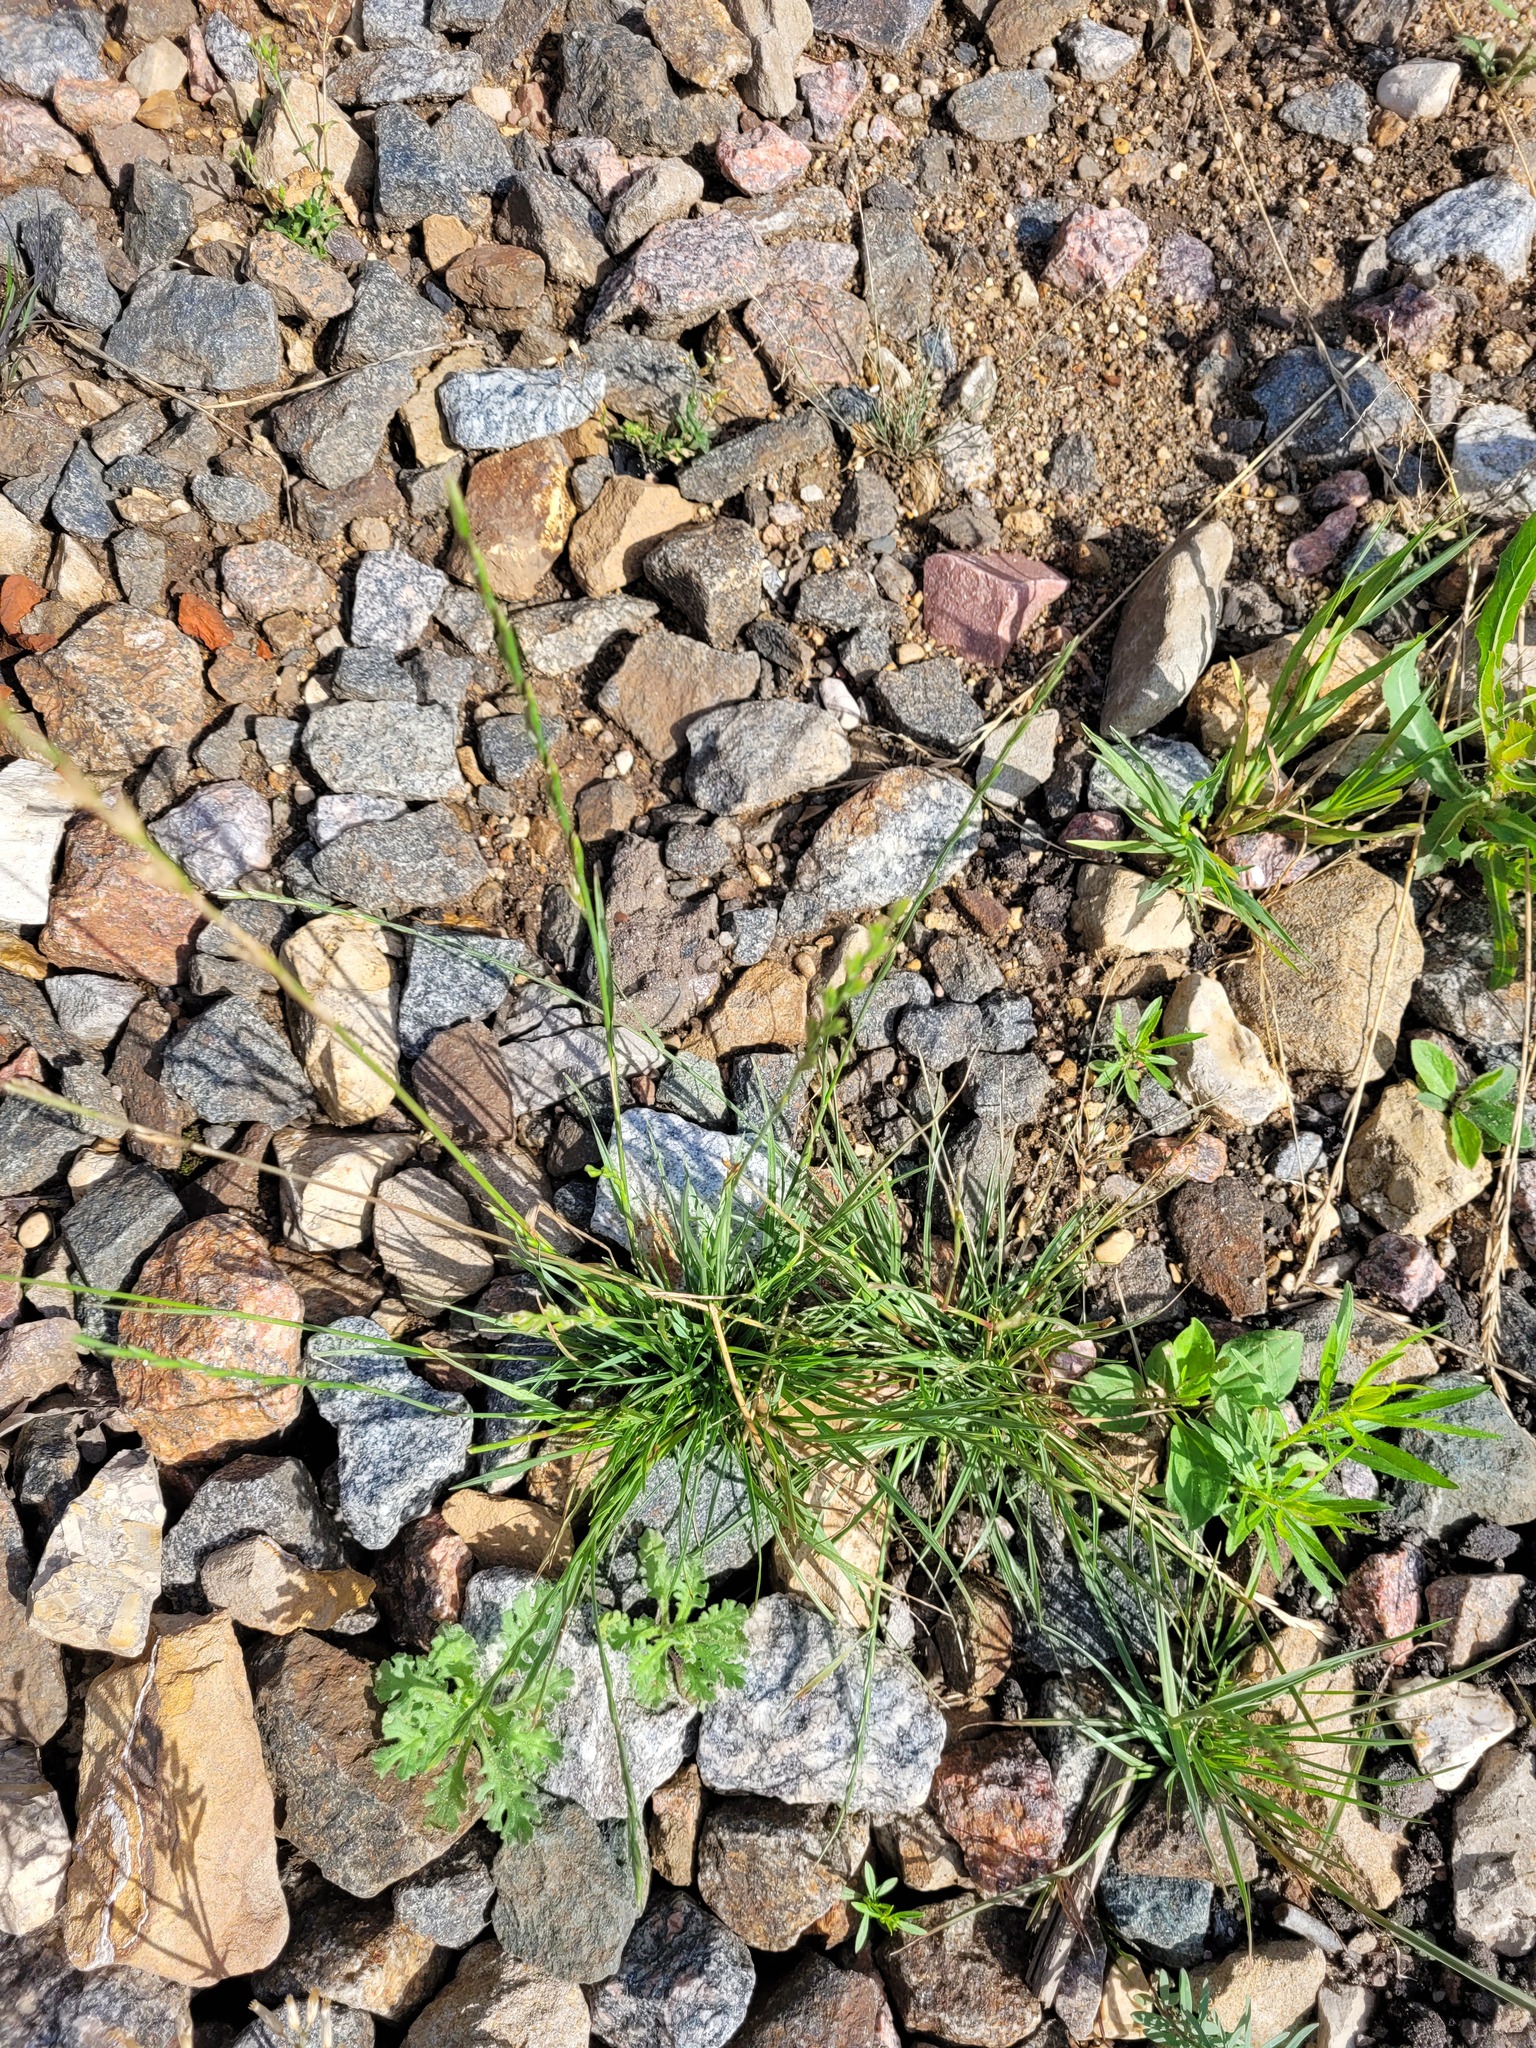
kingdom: Plantae
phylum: Tracheophyta
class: Liliopsida
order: Poales
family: Poaceae
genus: Lolium
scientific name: Lolium perenne
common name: Perennial ryegrass
